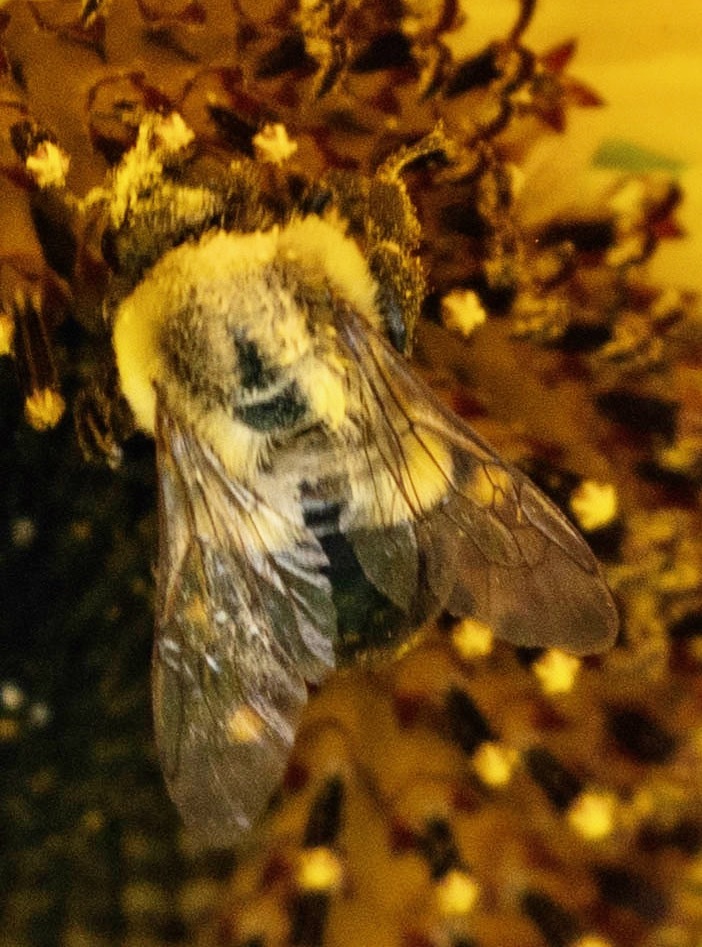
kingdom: Animalia
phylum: Arthropoda
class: Insecta
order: Hymenoptera
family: Apidae
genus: Bombus
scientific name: Bombus impatiens
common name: Common eastern bumble bee
